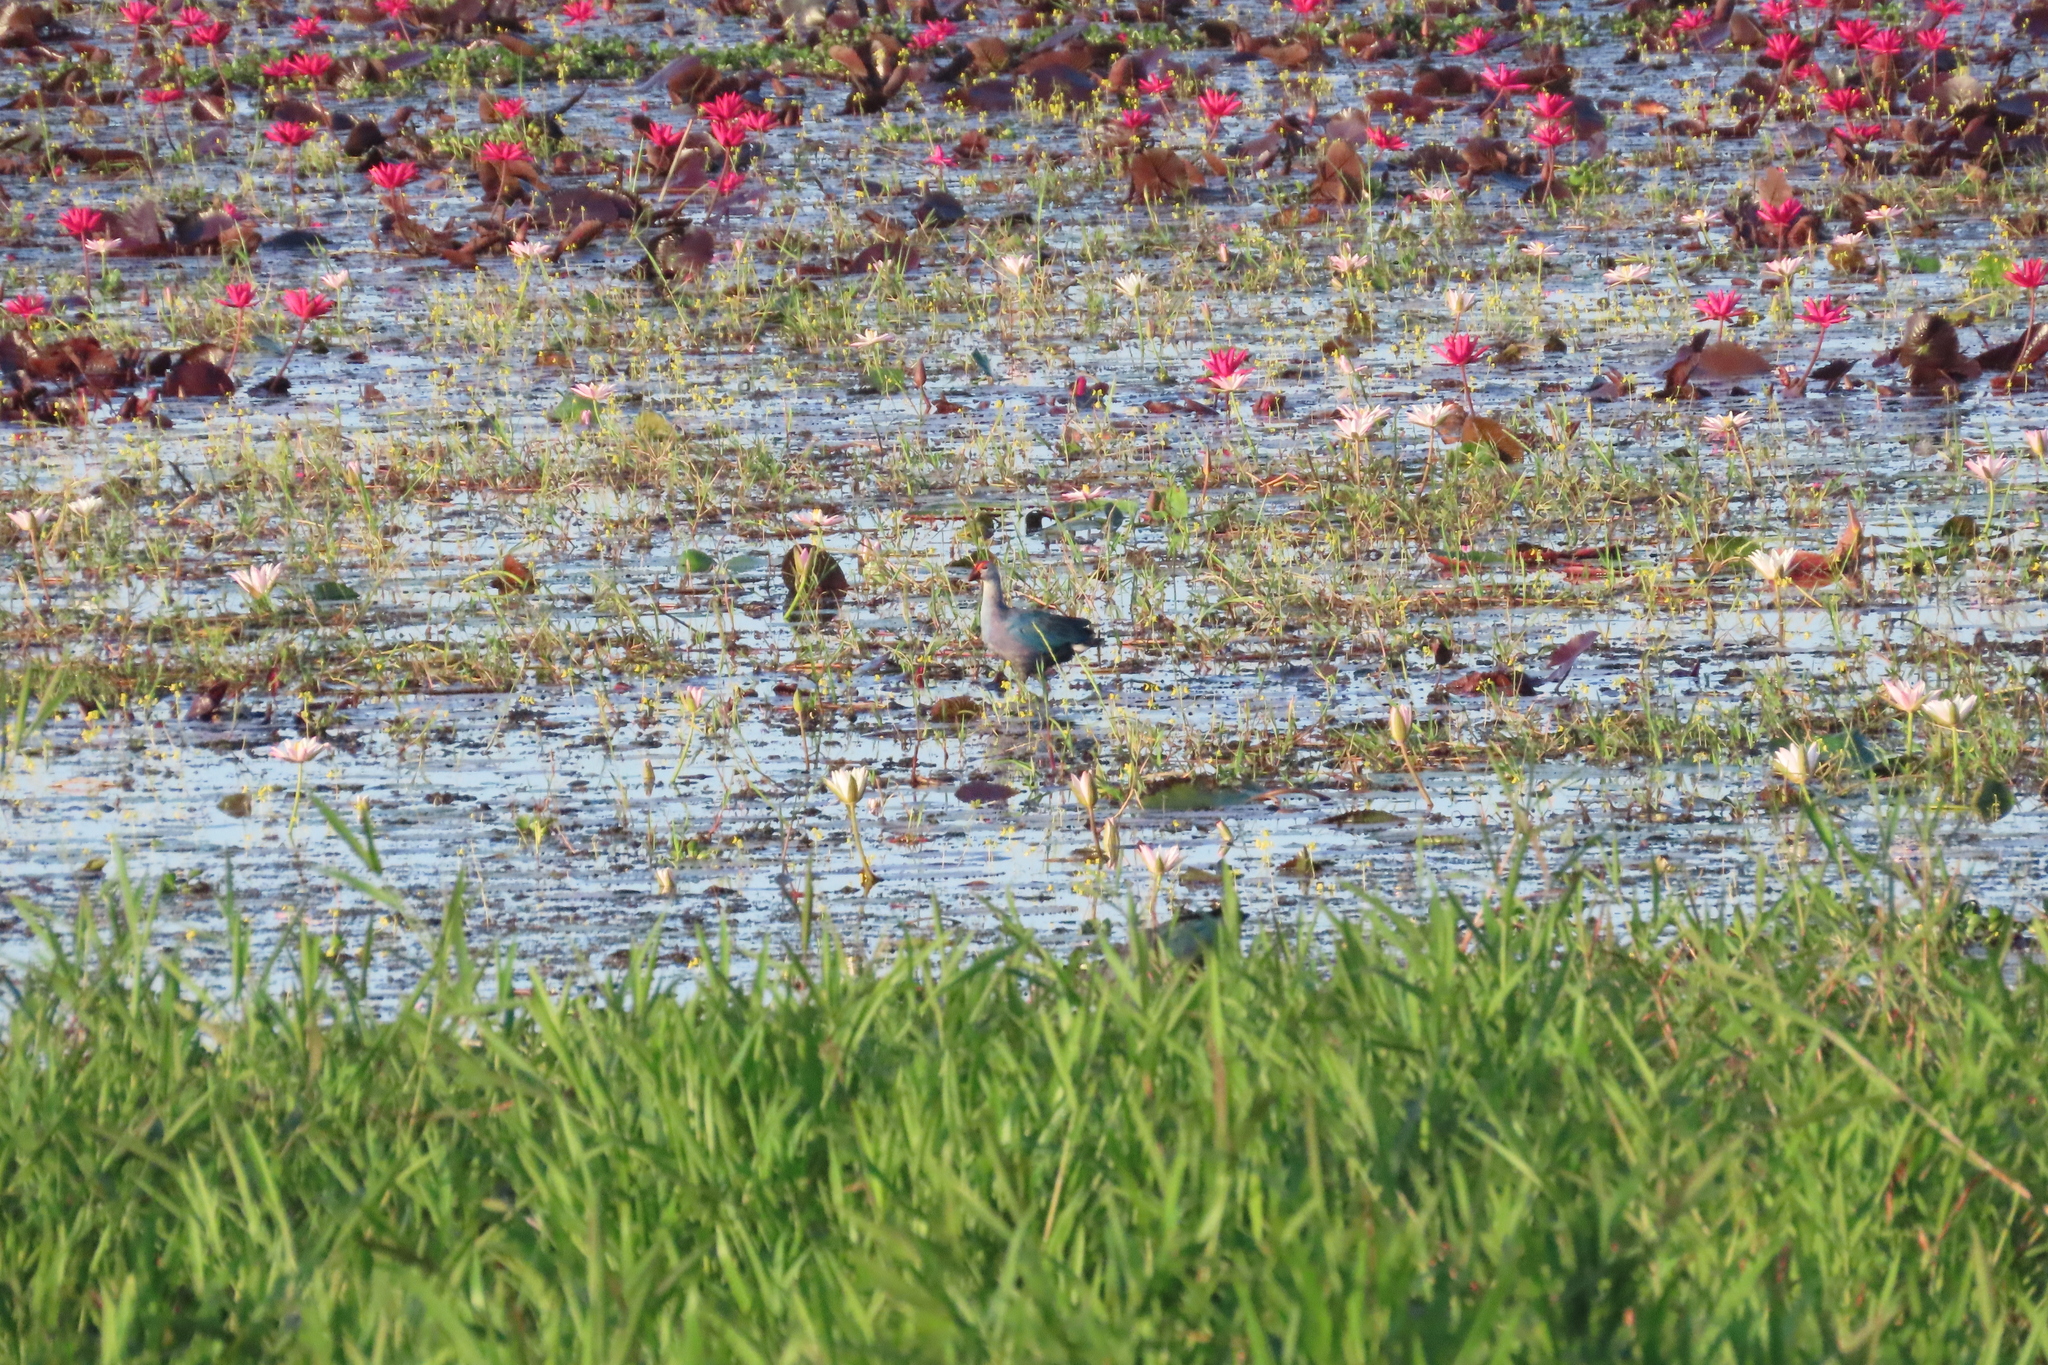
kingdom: Animalia
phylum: Chordata
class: Aves
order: Gruiformes
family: Rallidae
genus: Porphyrio
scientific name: Porphyrio porphyrio
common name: Purple swamphen
